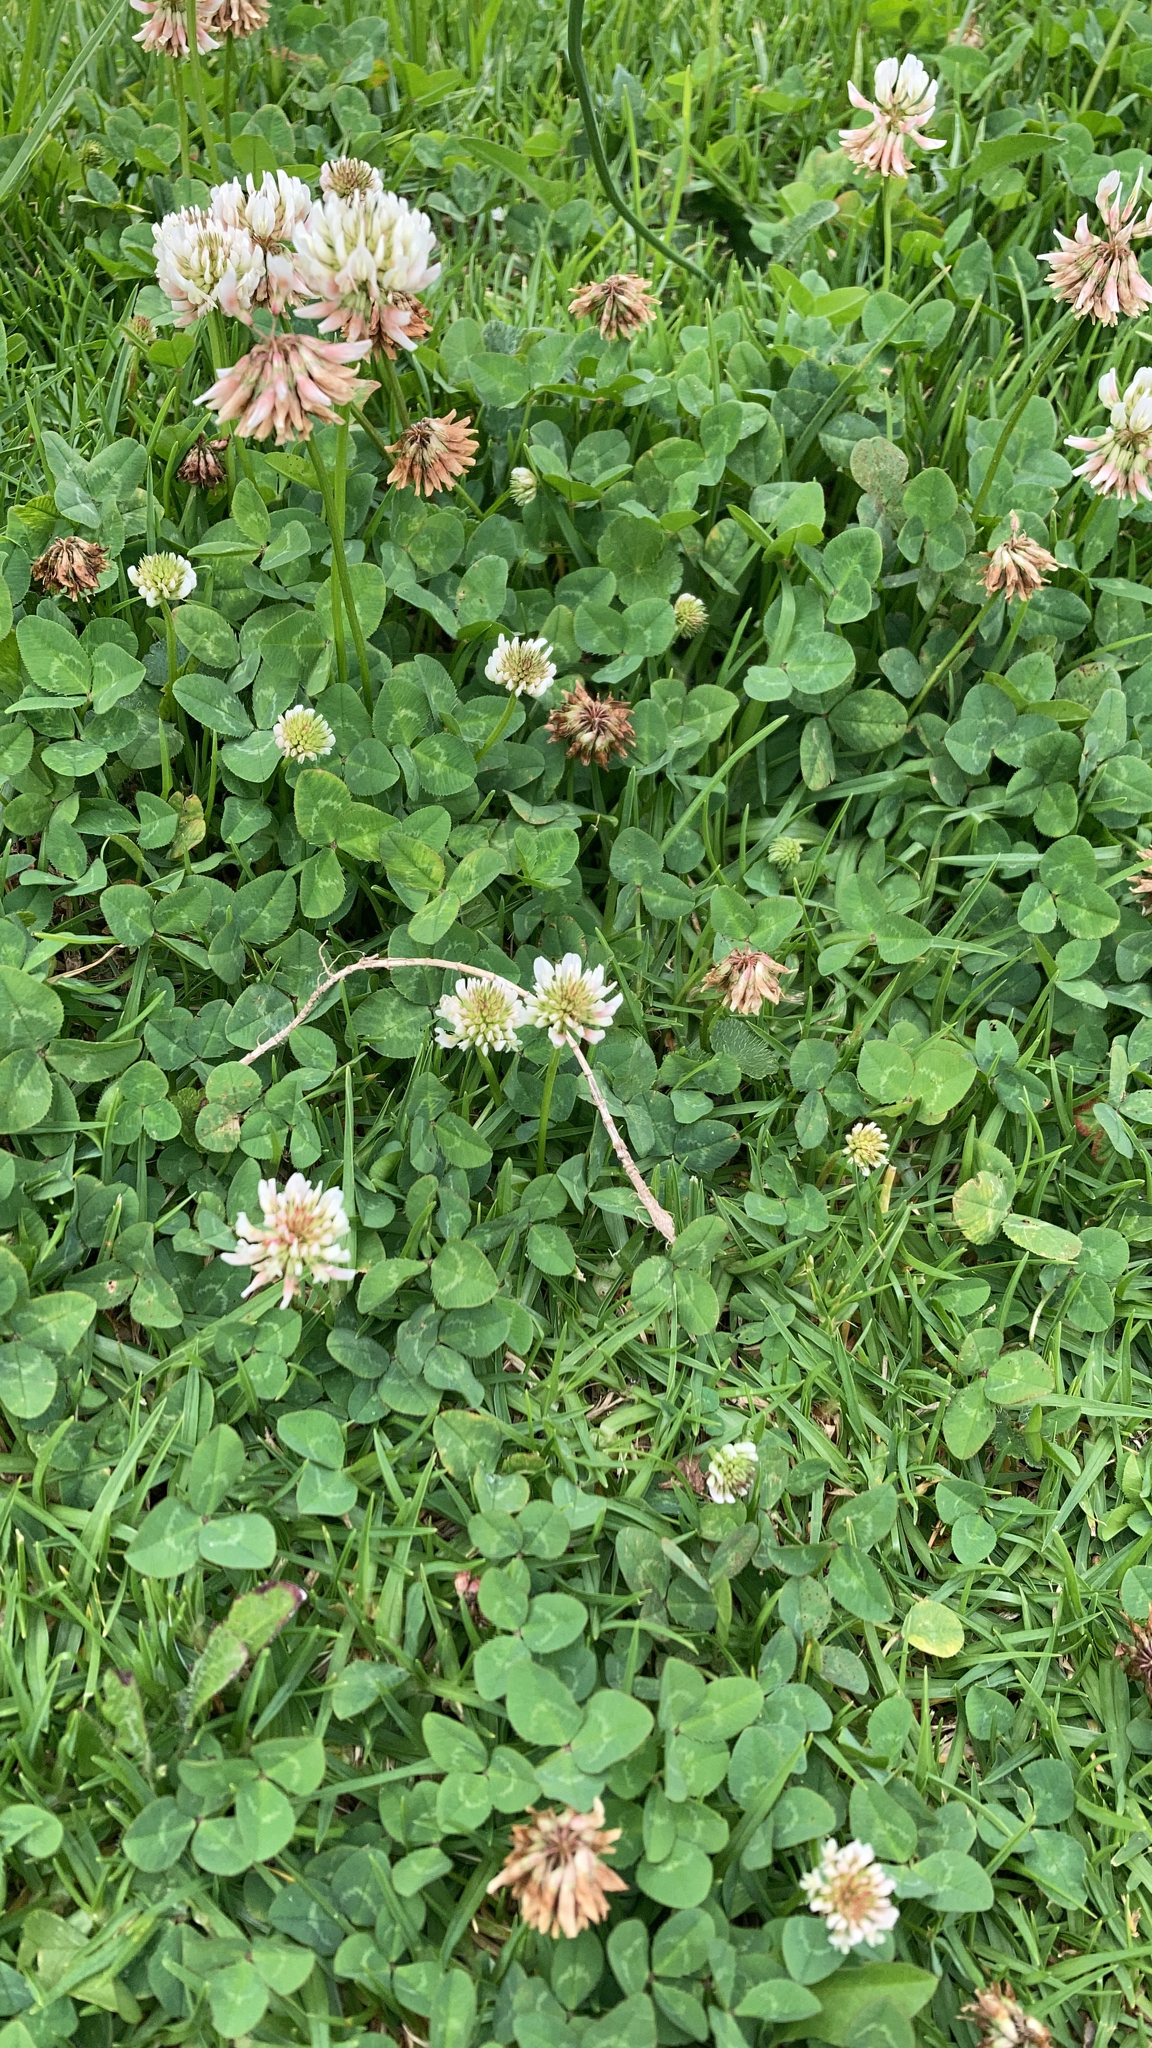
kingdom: Plantae
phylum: Tracheophyta
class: Magnoliopsida
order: Fabales
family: Fabaceae
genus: Trifolium
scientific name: Trifolium repens
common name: White clover
